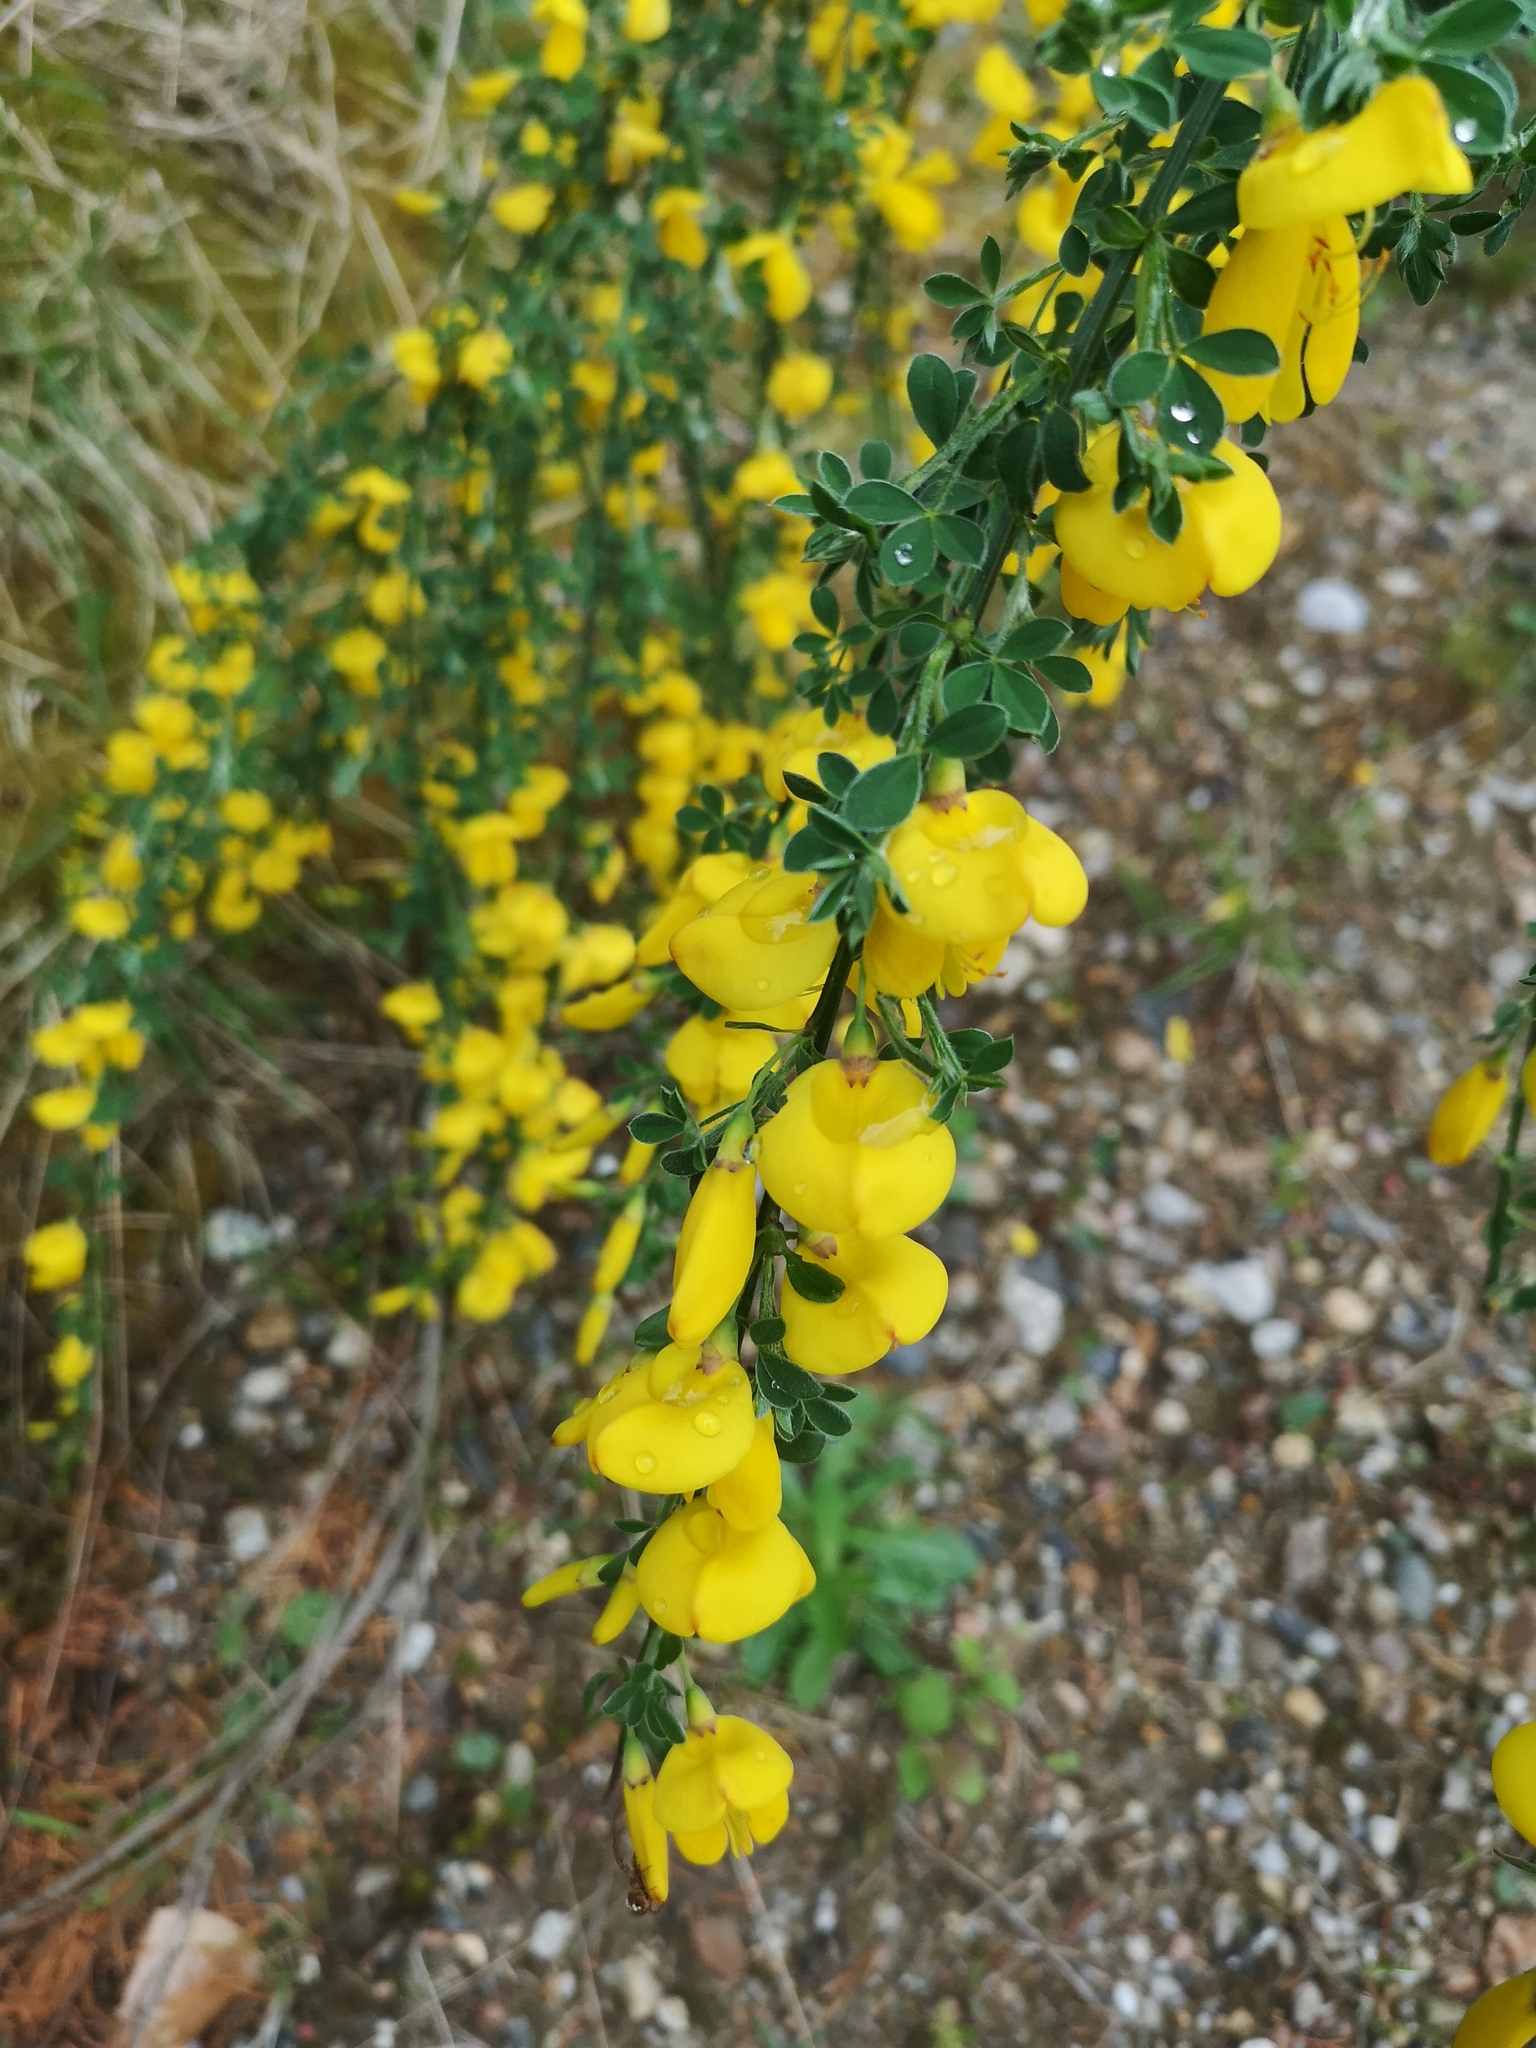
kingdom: Plantae
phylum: Tracheophyta
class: Magnoliopsida
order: Fabales
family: Fabaceae
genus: Cytisus
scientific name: Cytisus scoparius
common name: Scotch broom
